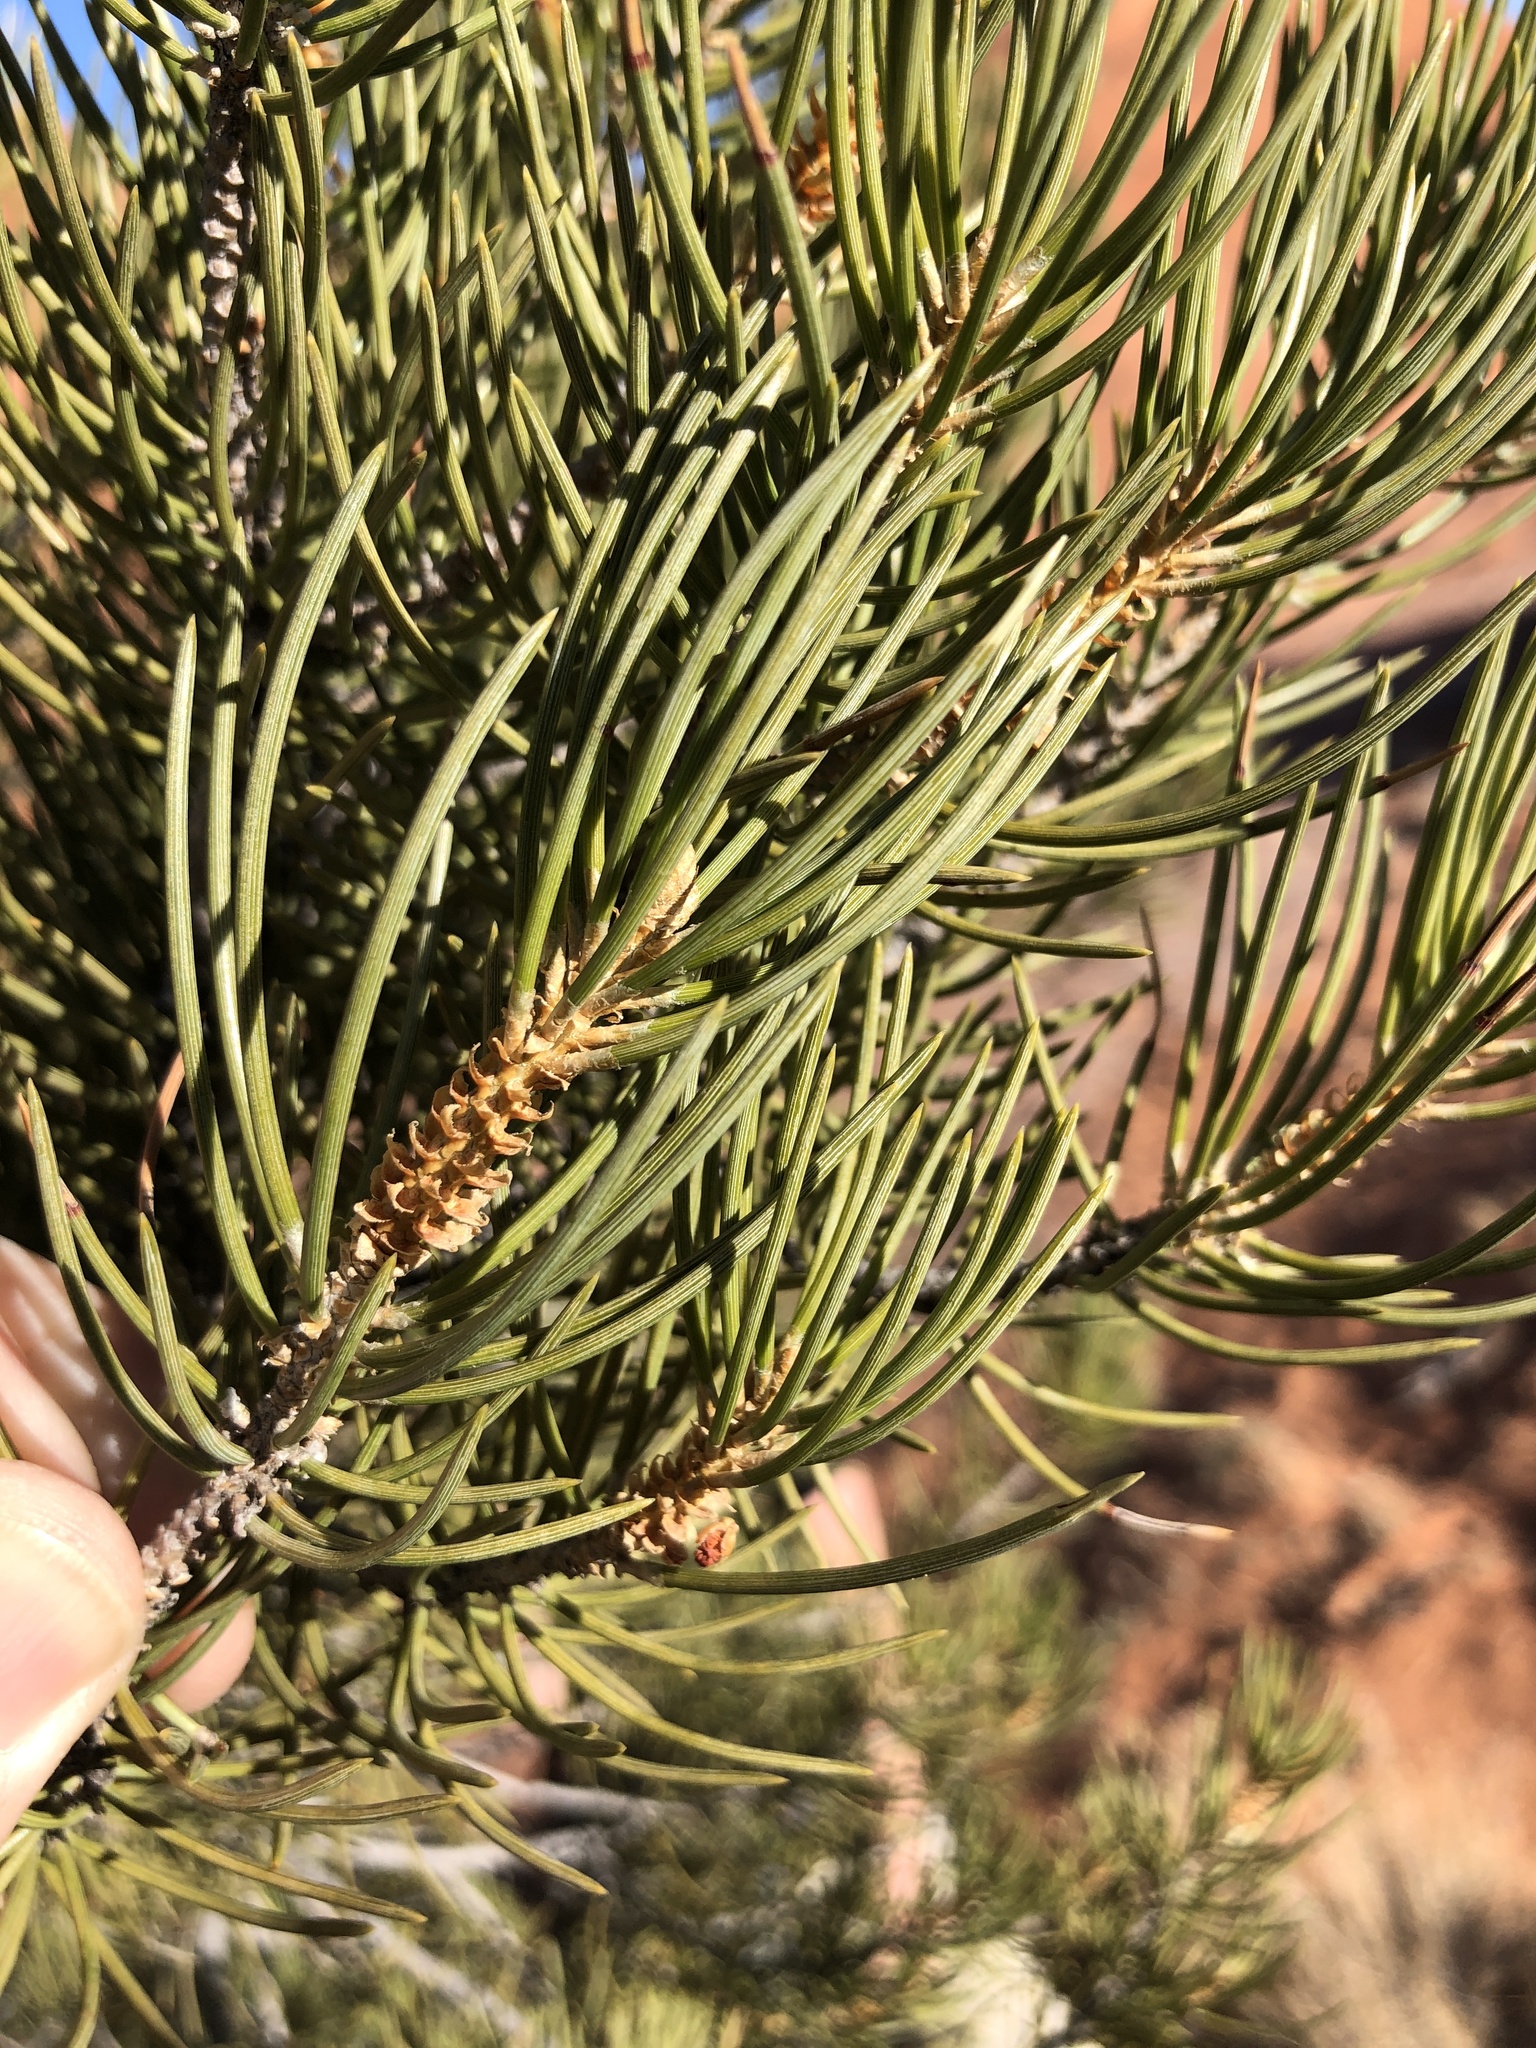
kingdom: Plantae
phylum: Tracheophyta
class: Pinopsida
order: Pinales
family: Pinaceae
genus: Pinus
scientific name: Pinus monophylla
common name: One-leaved nut pine
